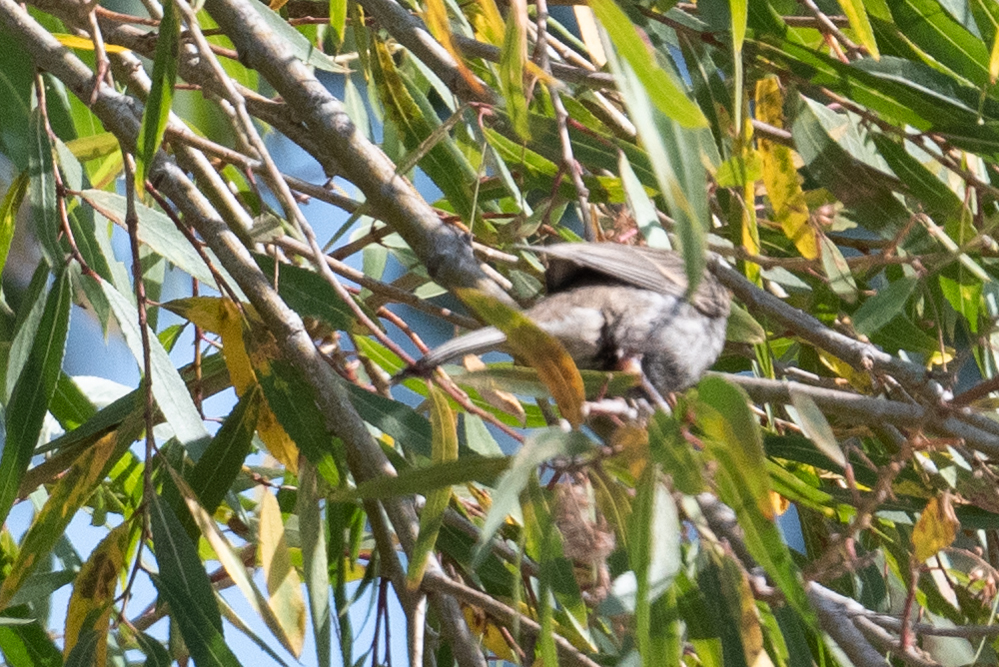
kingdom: Animalia
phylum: Chordata
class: Aves
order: Passeriformes
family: Fringillidae
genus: Haemorhous
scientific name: Haemorhous mexicanus
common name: House finch
